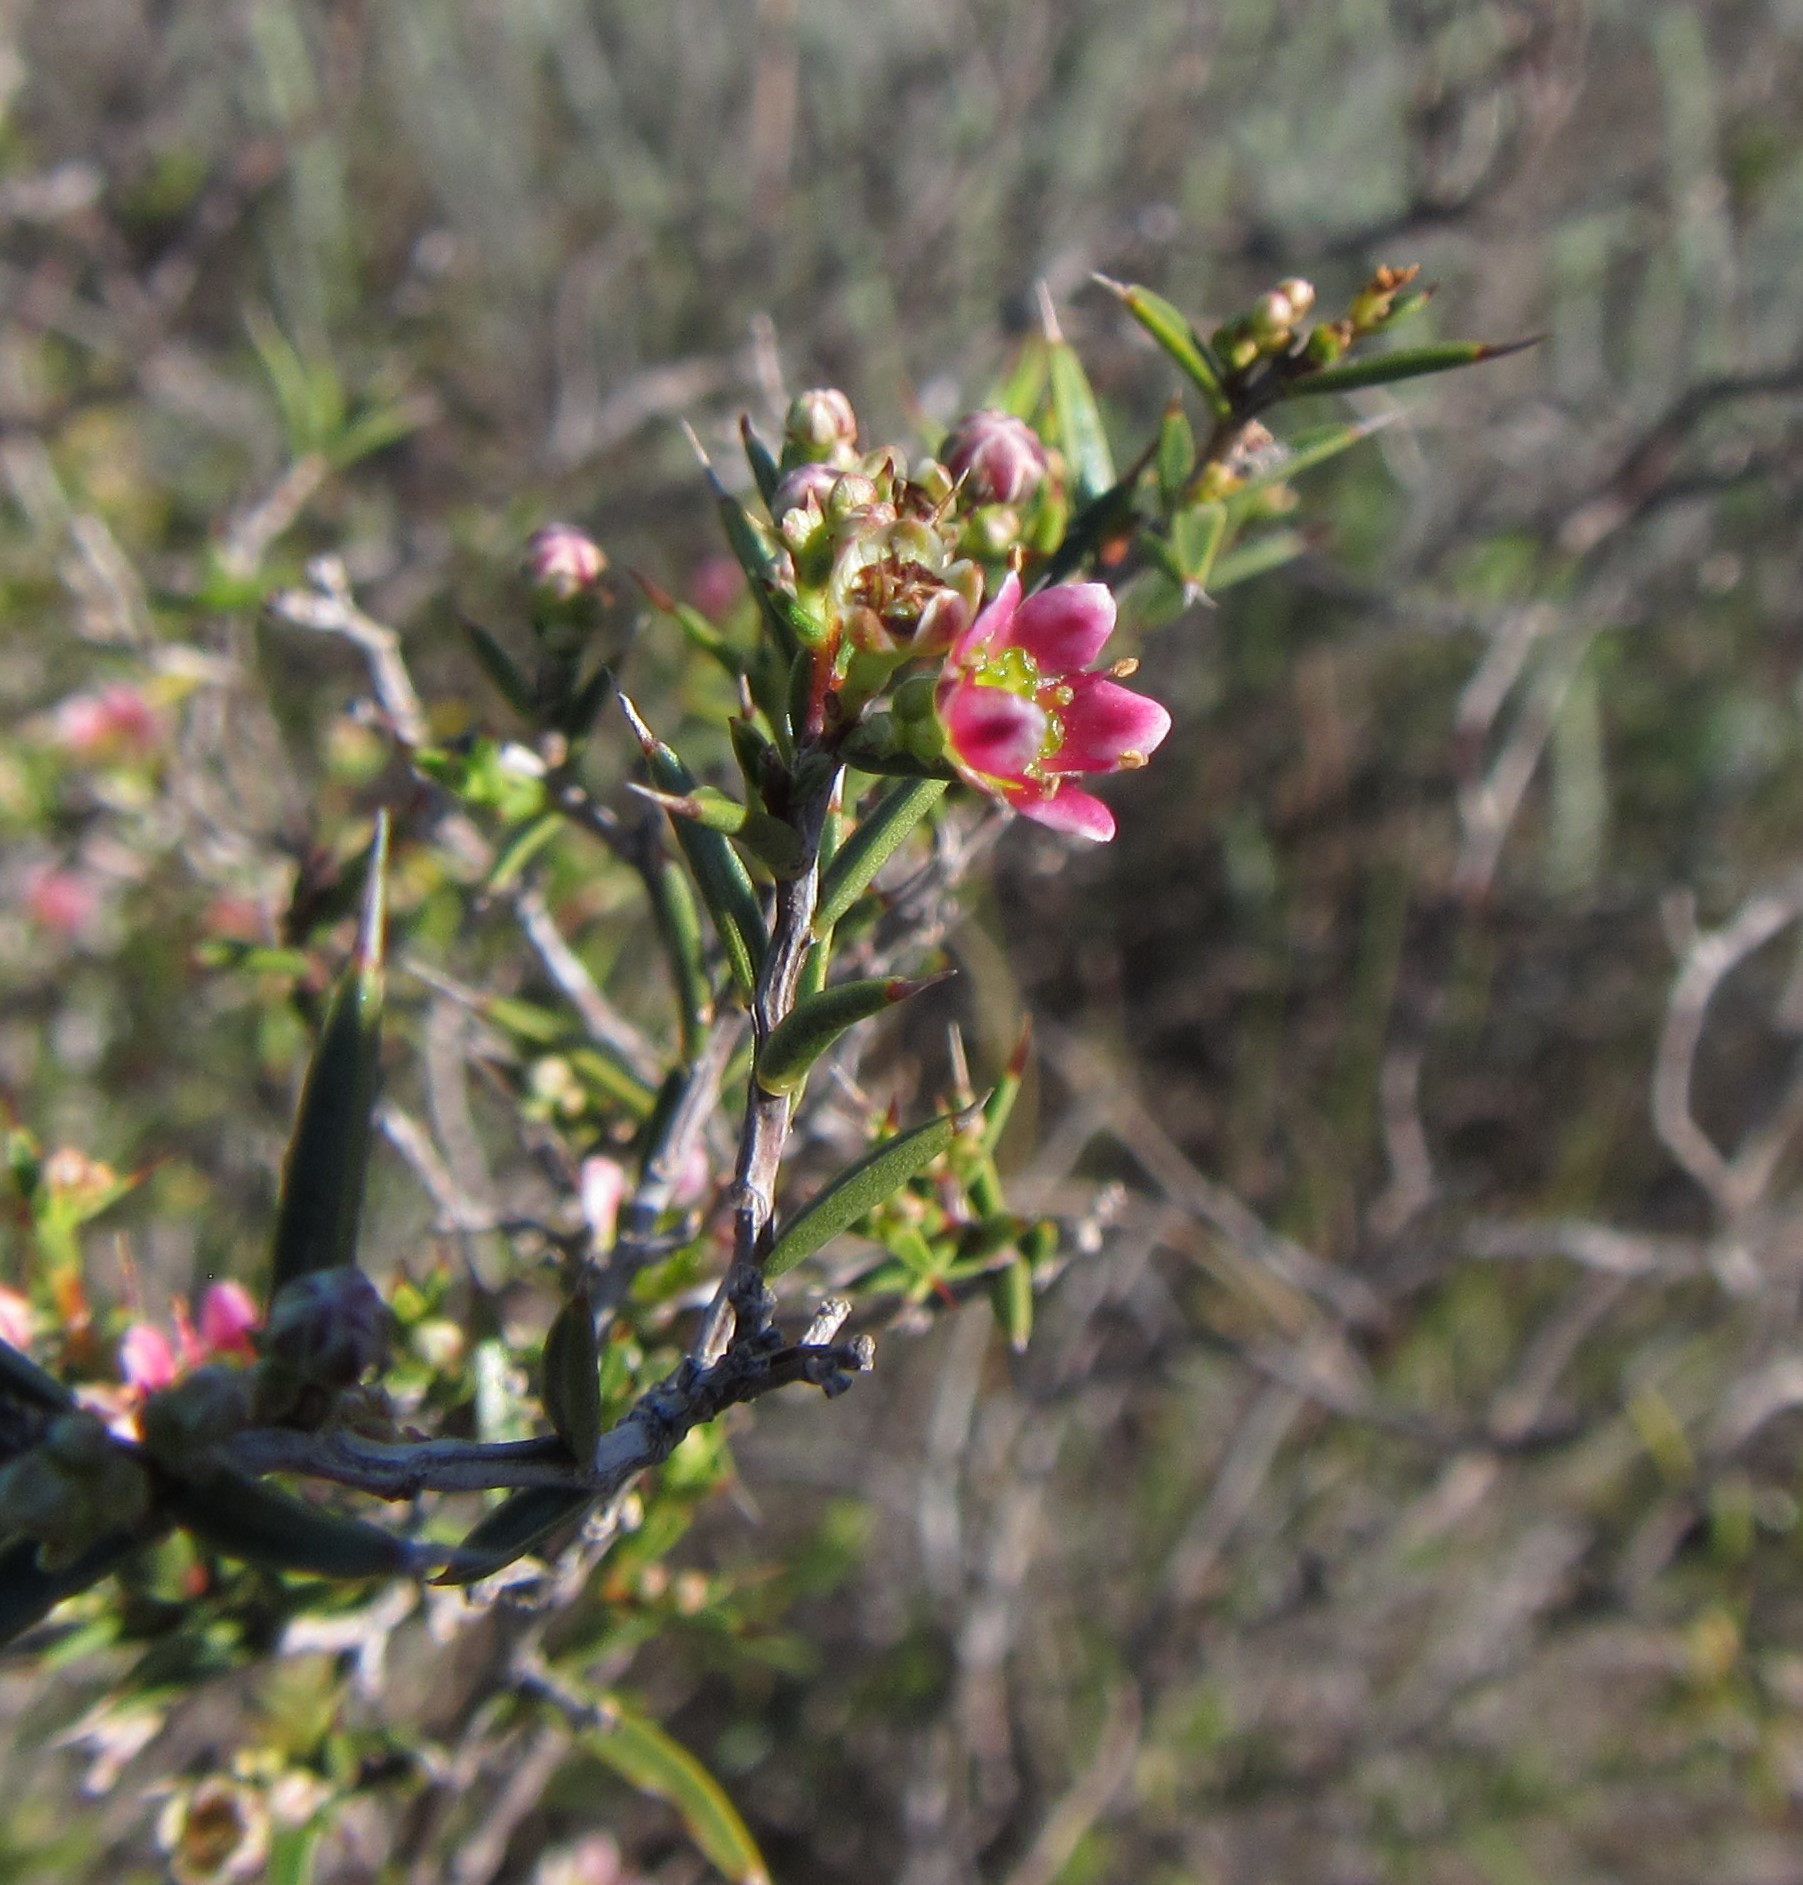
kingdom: Plantae
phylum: Tracheophyta
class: Magnoliopsida
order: Sapindales
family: Rutaceae
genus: Diosma
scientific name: Diosma fallax
